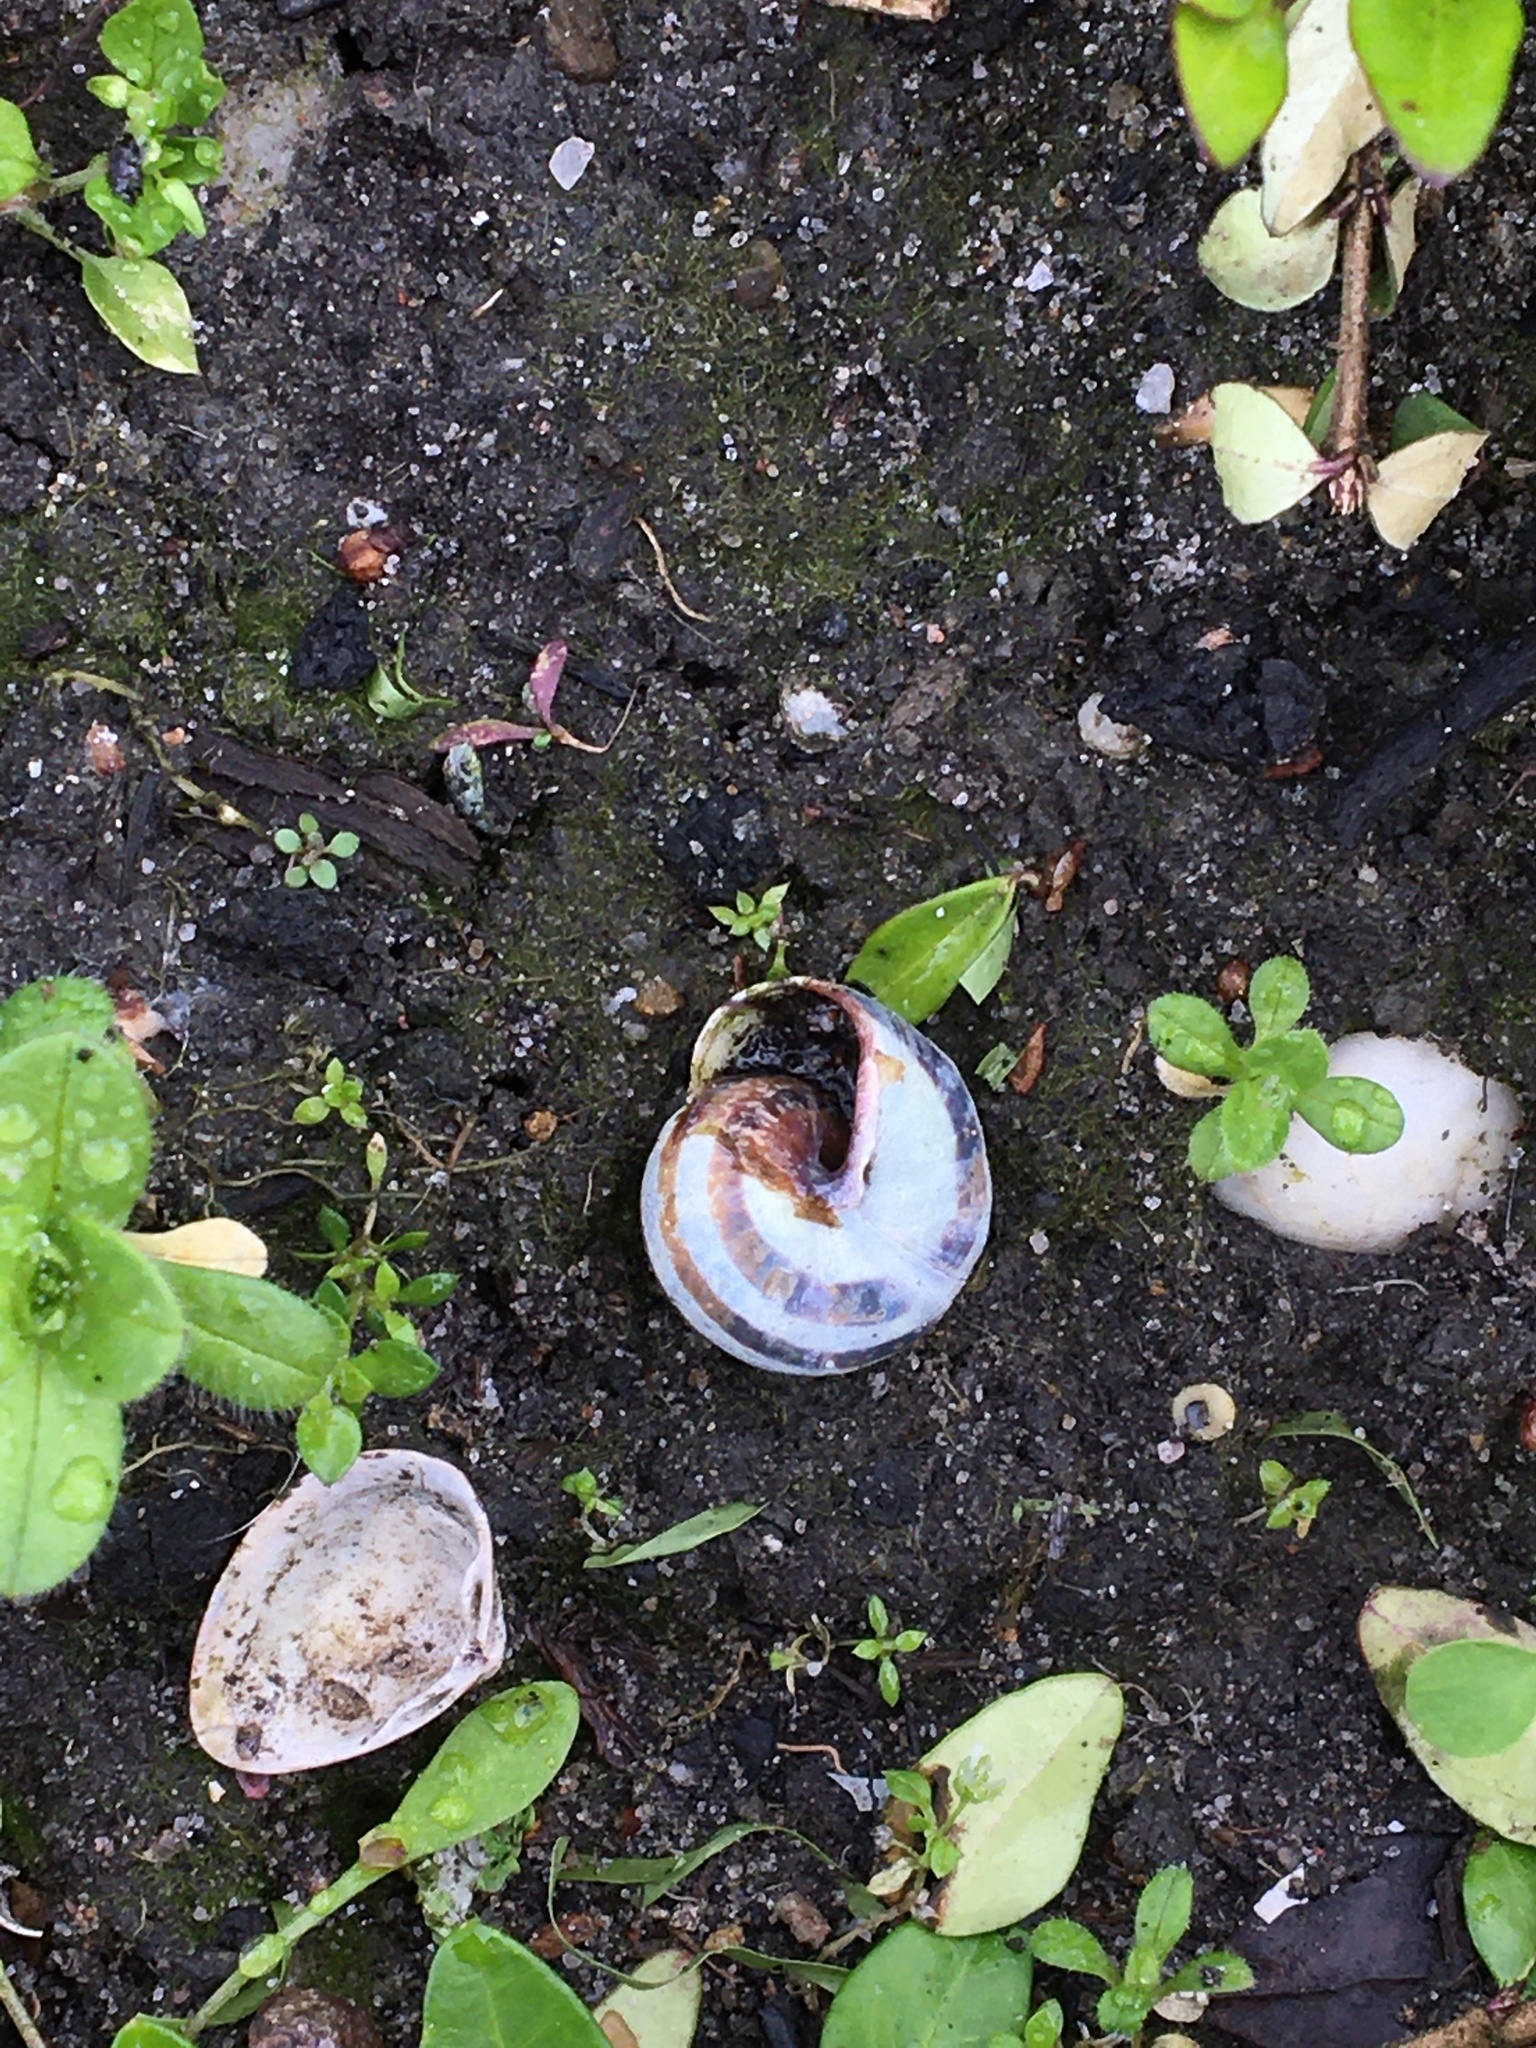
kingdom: Animalia
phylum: Mollusca
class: Gastropoda
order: Stylommatophora
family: Helicidae
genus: Cepaea
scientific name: Cepaea nemoralis
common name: Grovesnail
